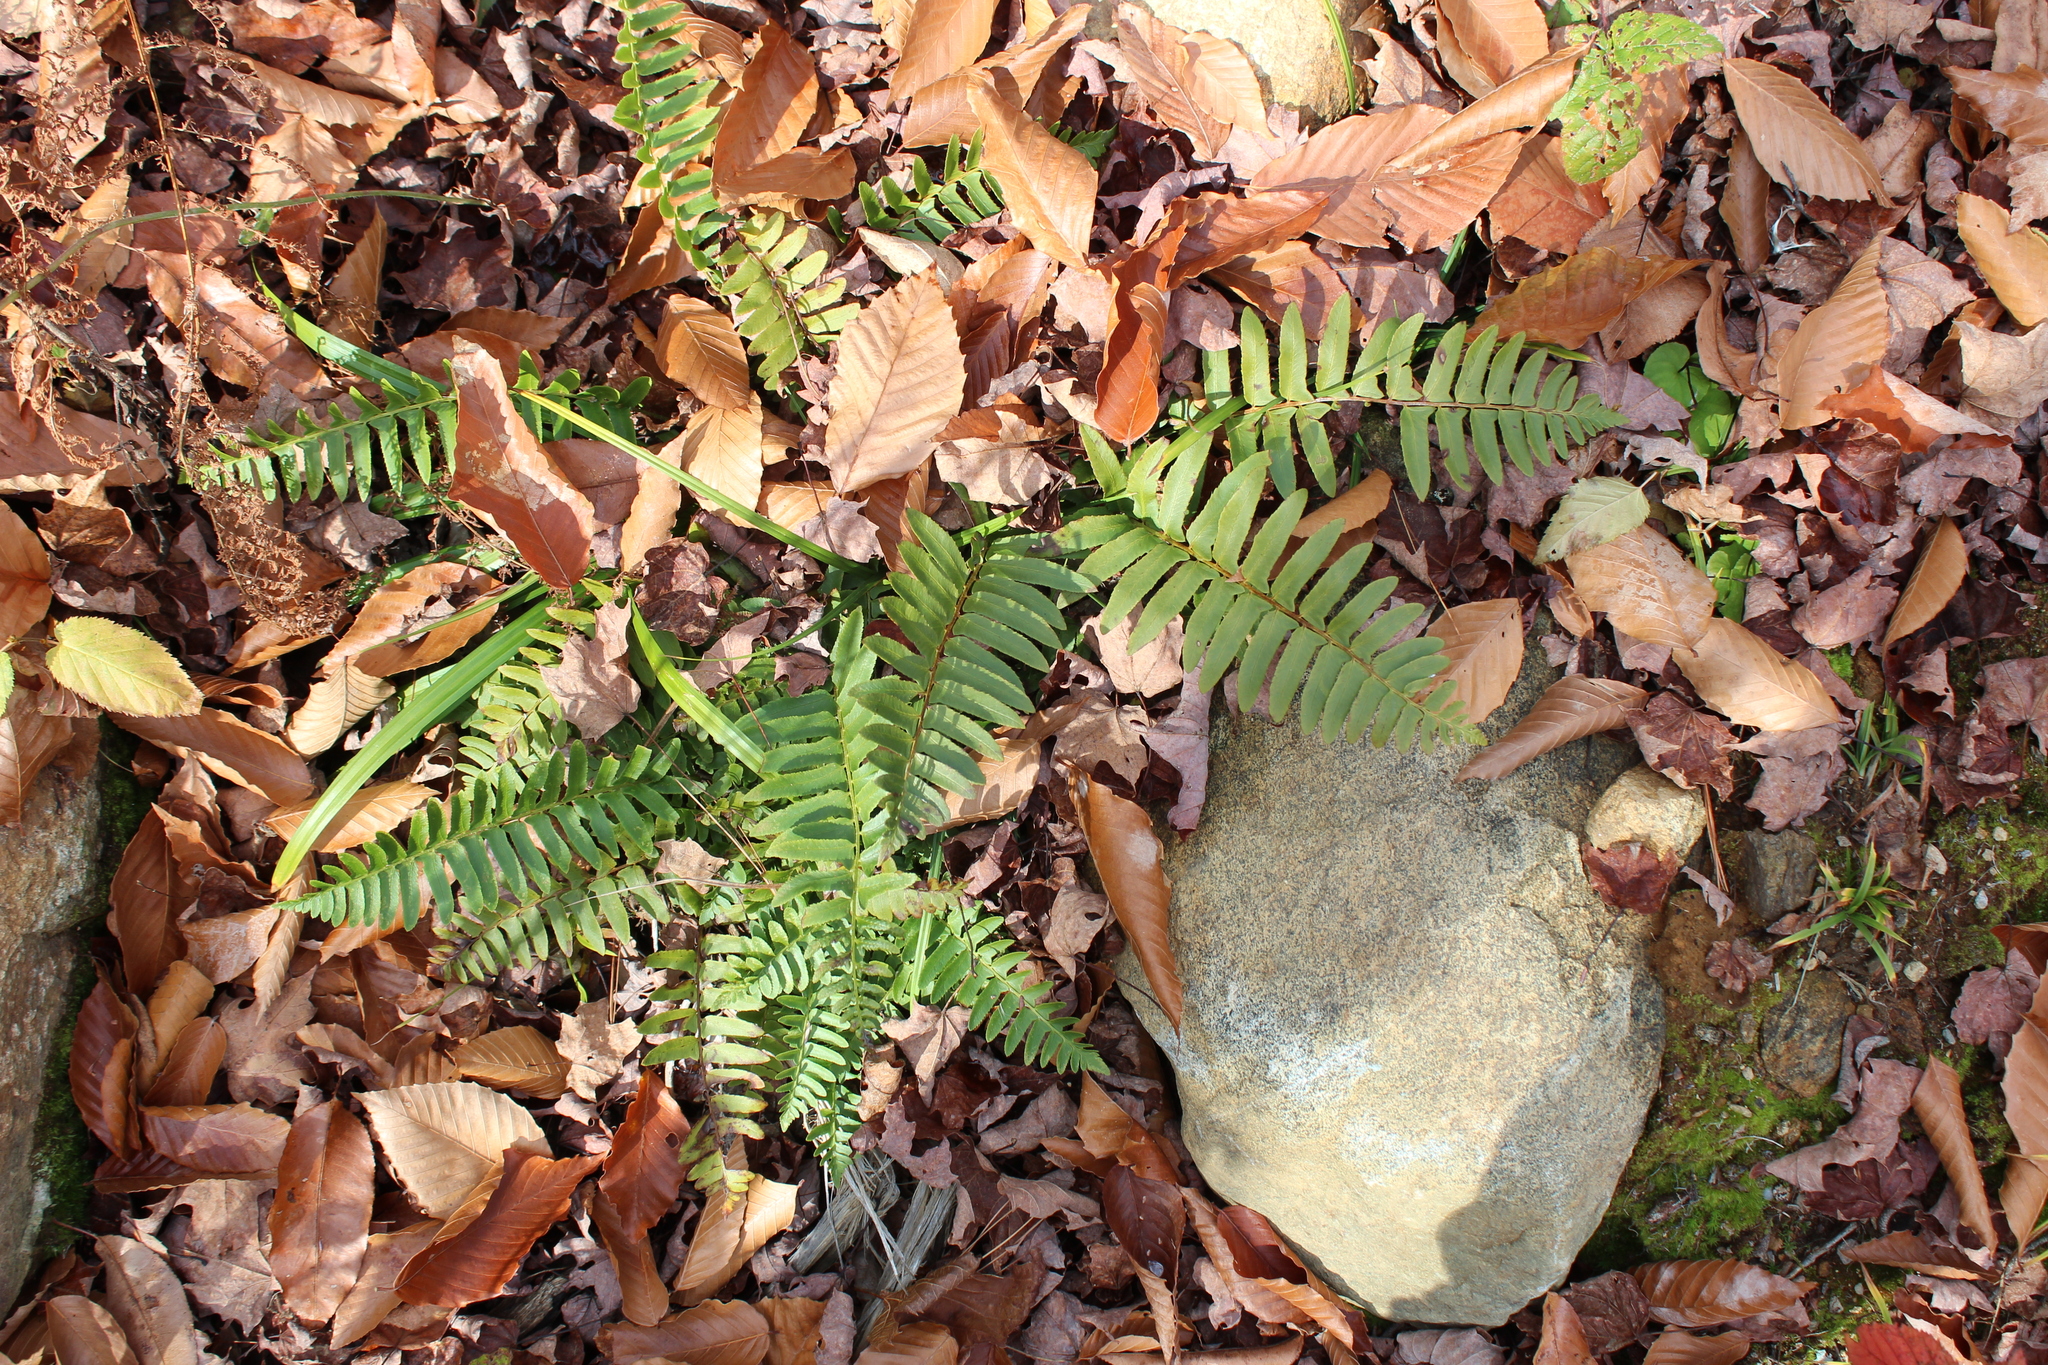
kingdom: Plantae
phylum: Tracheophyta
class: Polypodiopsida
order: Polypodiales
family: Dryopteridaceae
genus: Polystichum
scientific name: Polystichum acrostichoides
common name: Christmas fern
